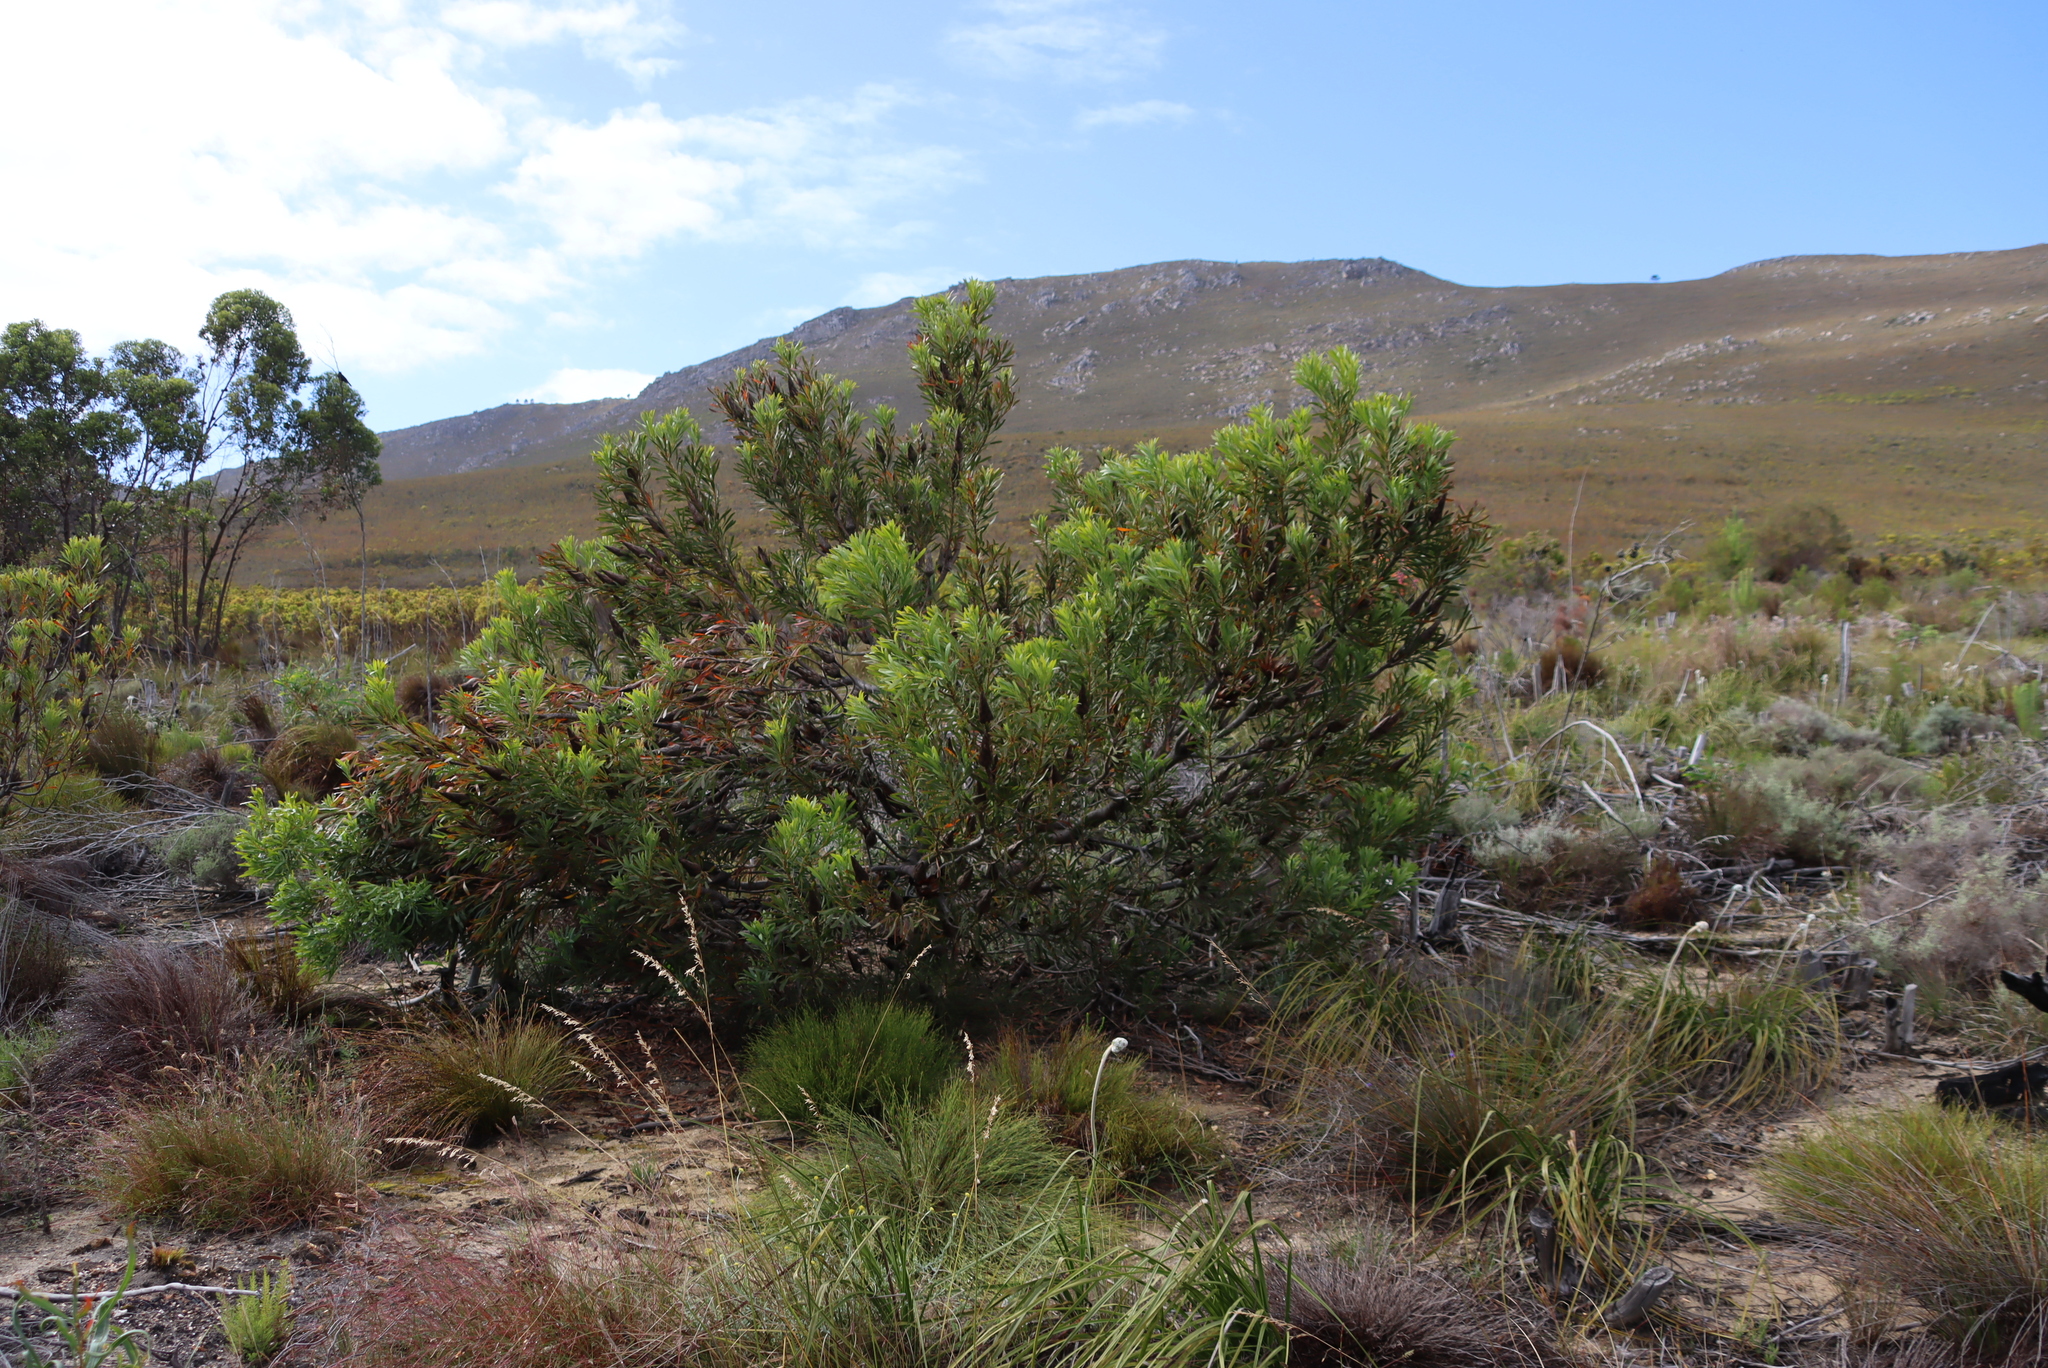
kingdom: Plantae
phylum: Tracheophyta
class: Magnoliopsida
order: Proteales
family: Proteaceae
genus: Protea
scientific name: Protea repens
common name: Sugarbush
